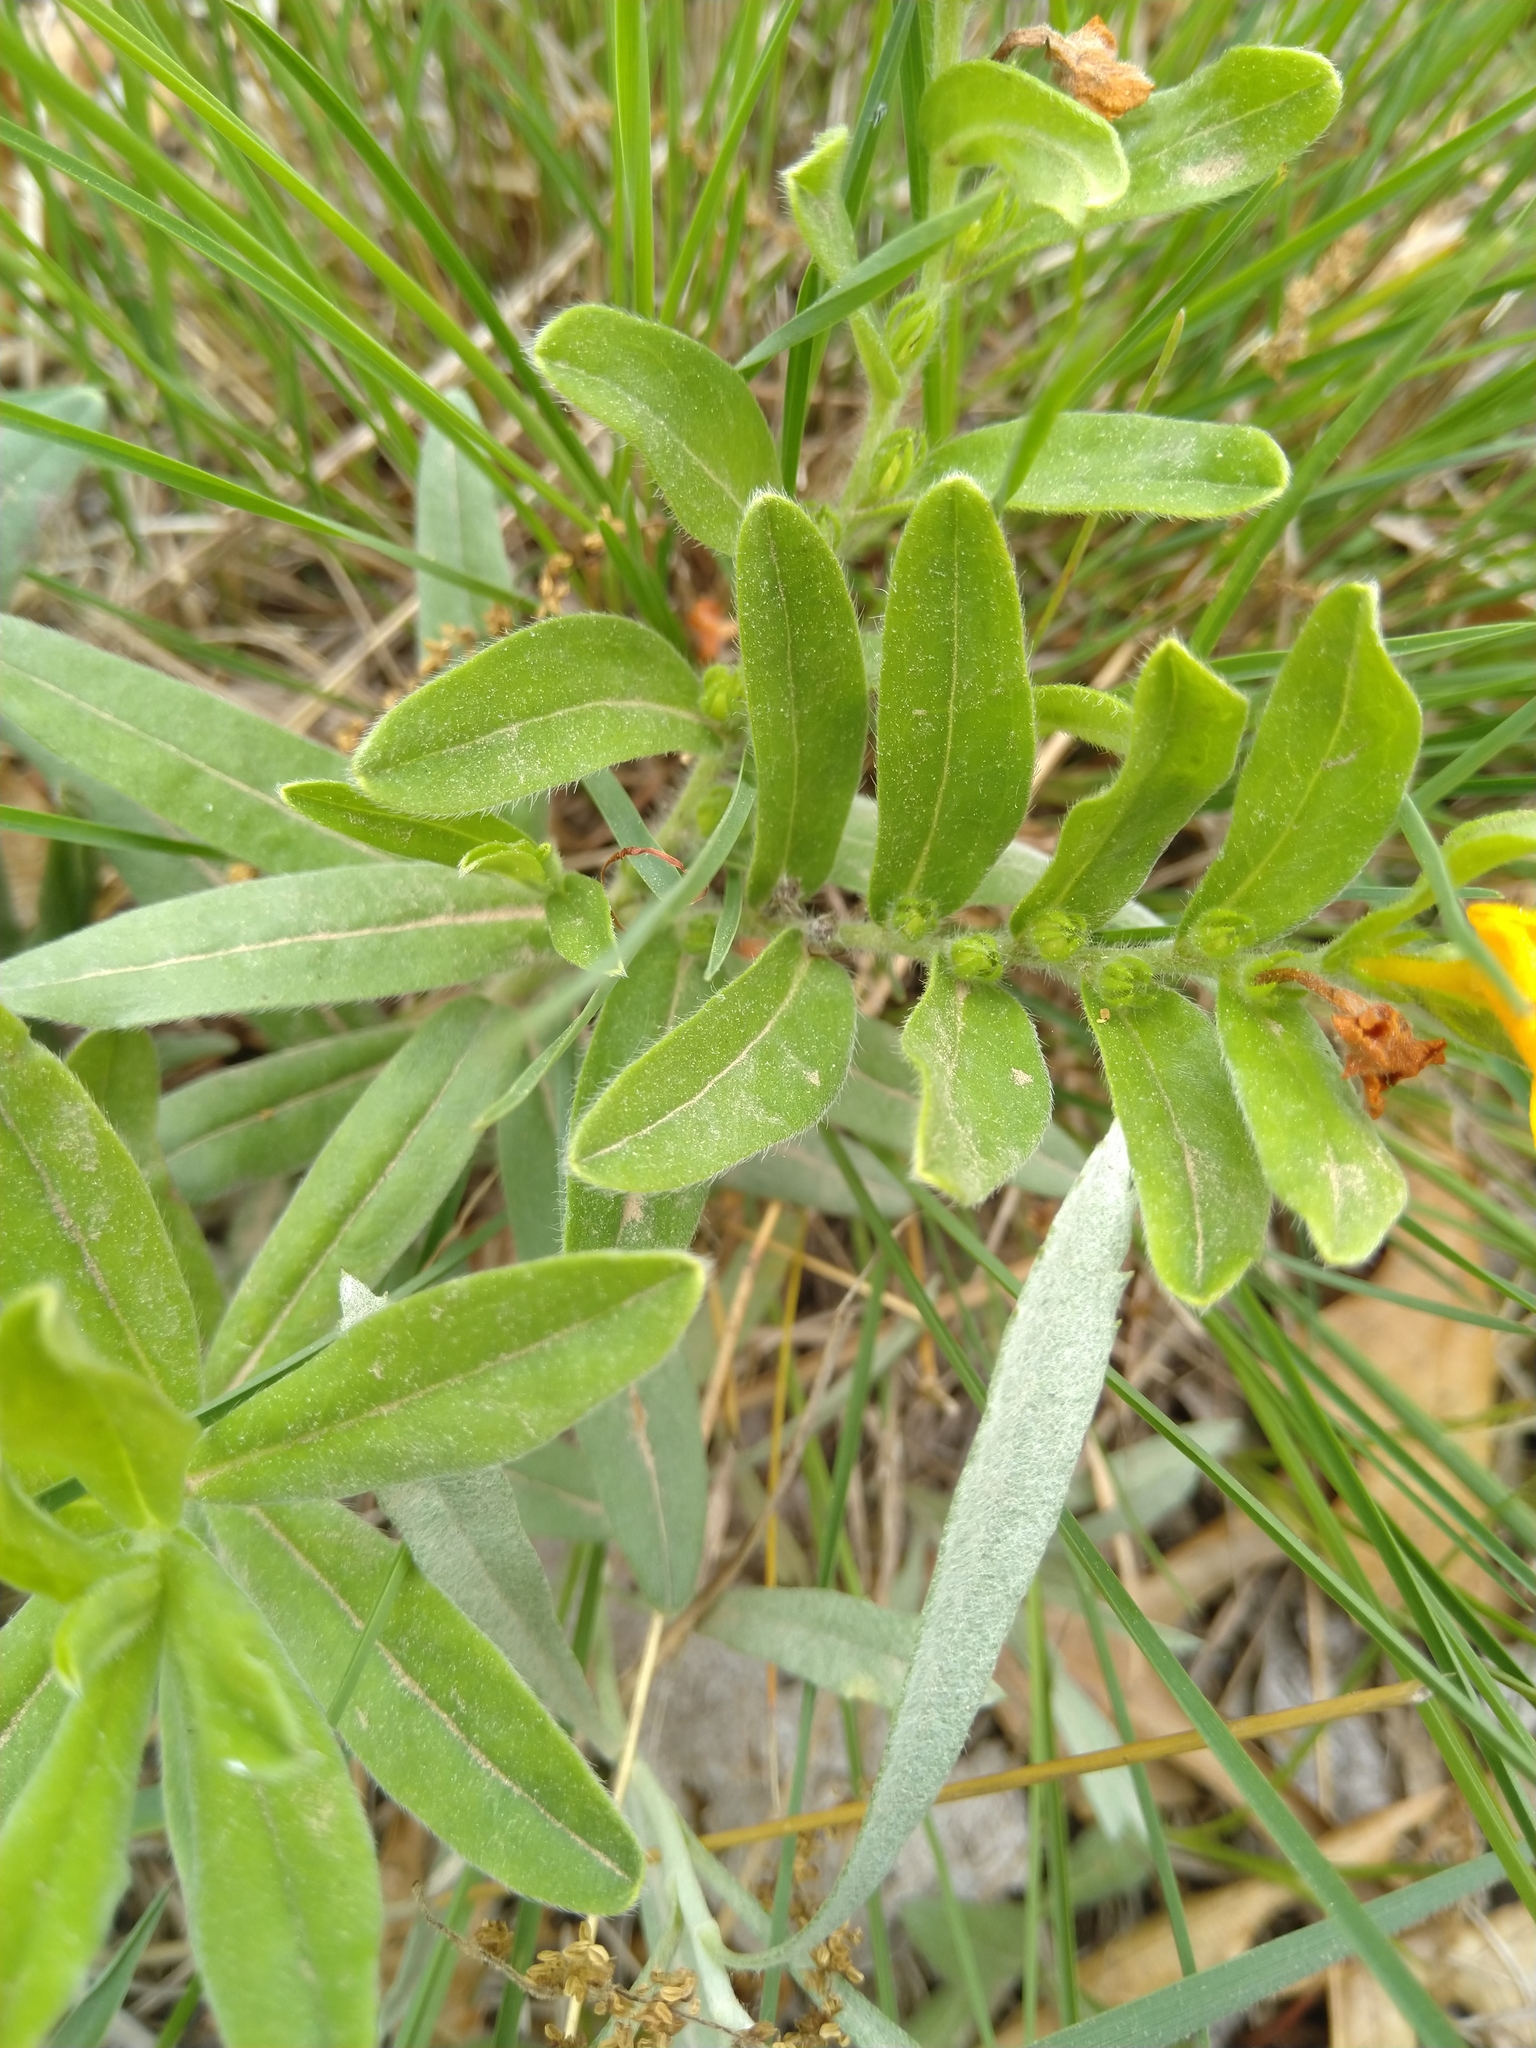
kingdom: Plantae
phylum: Tracheophyta
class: Magnoliopsida
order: Boraginales
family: Boraginaceae
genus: Lithospermum
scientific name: Lithospermum canescens
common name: Hoary puccoon
